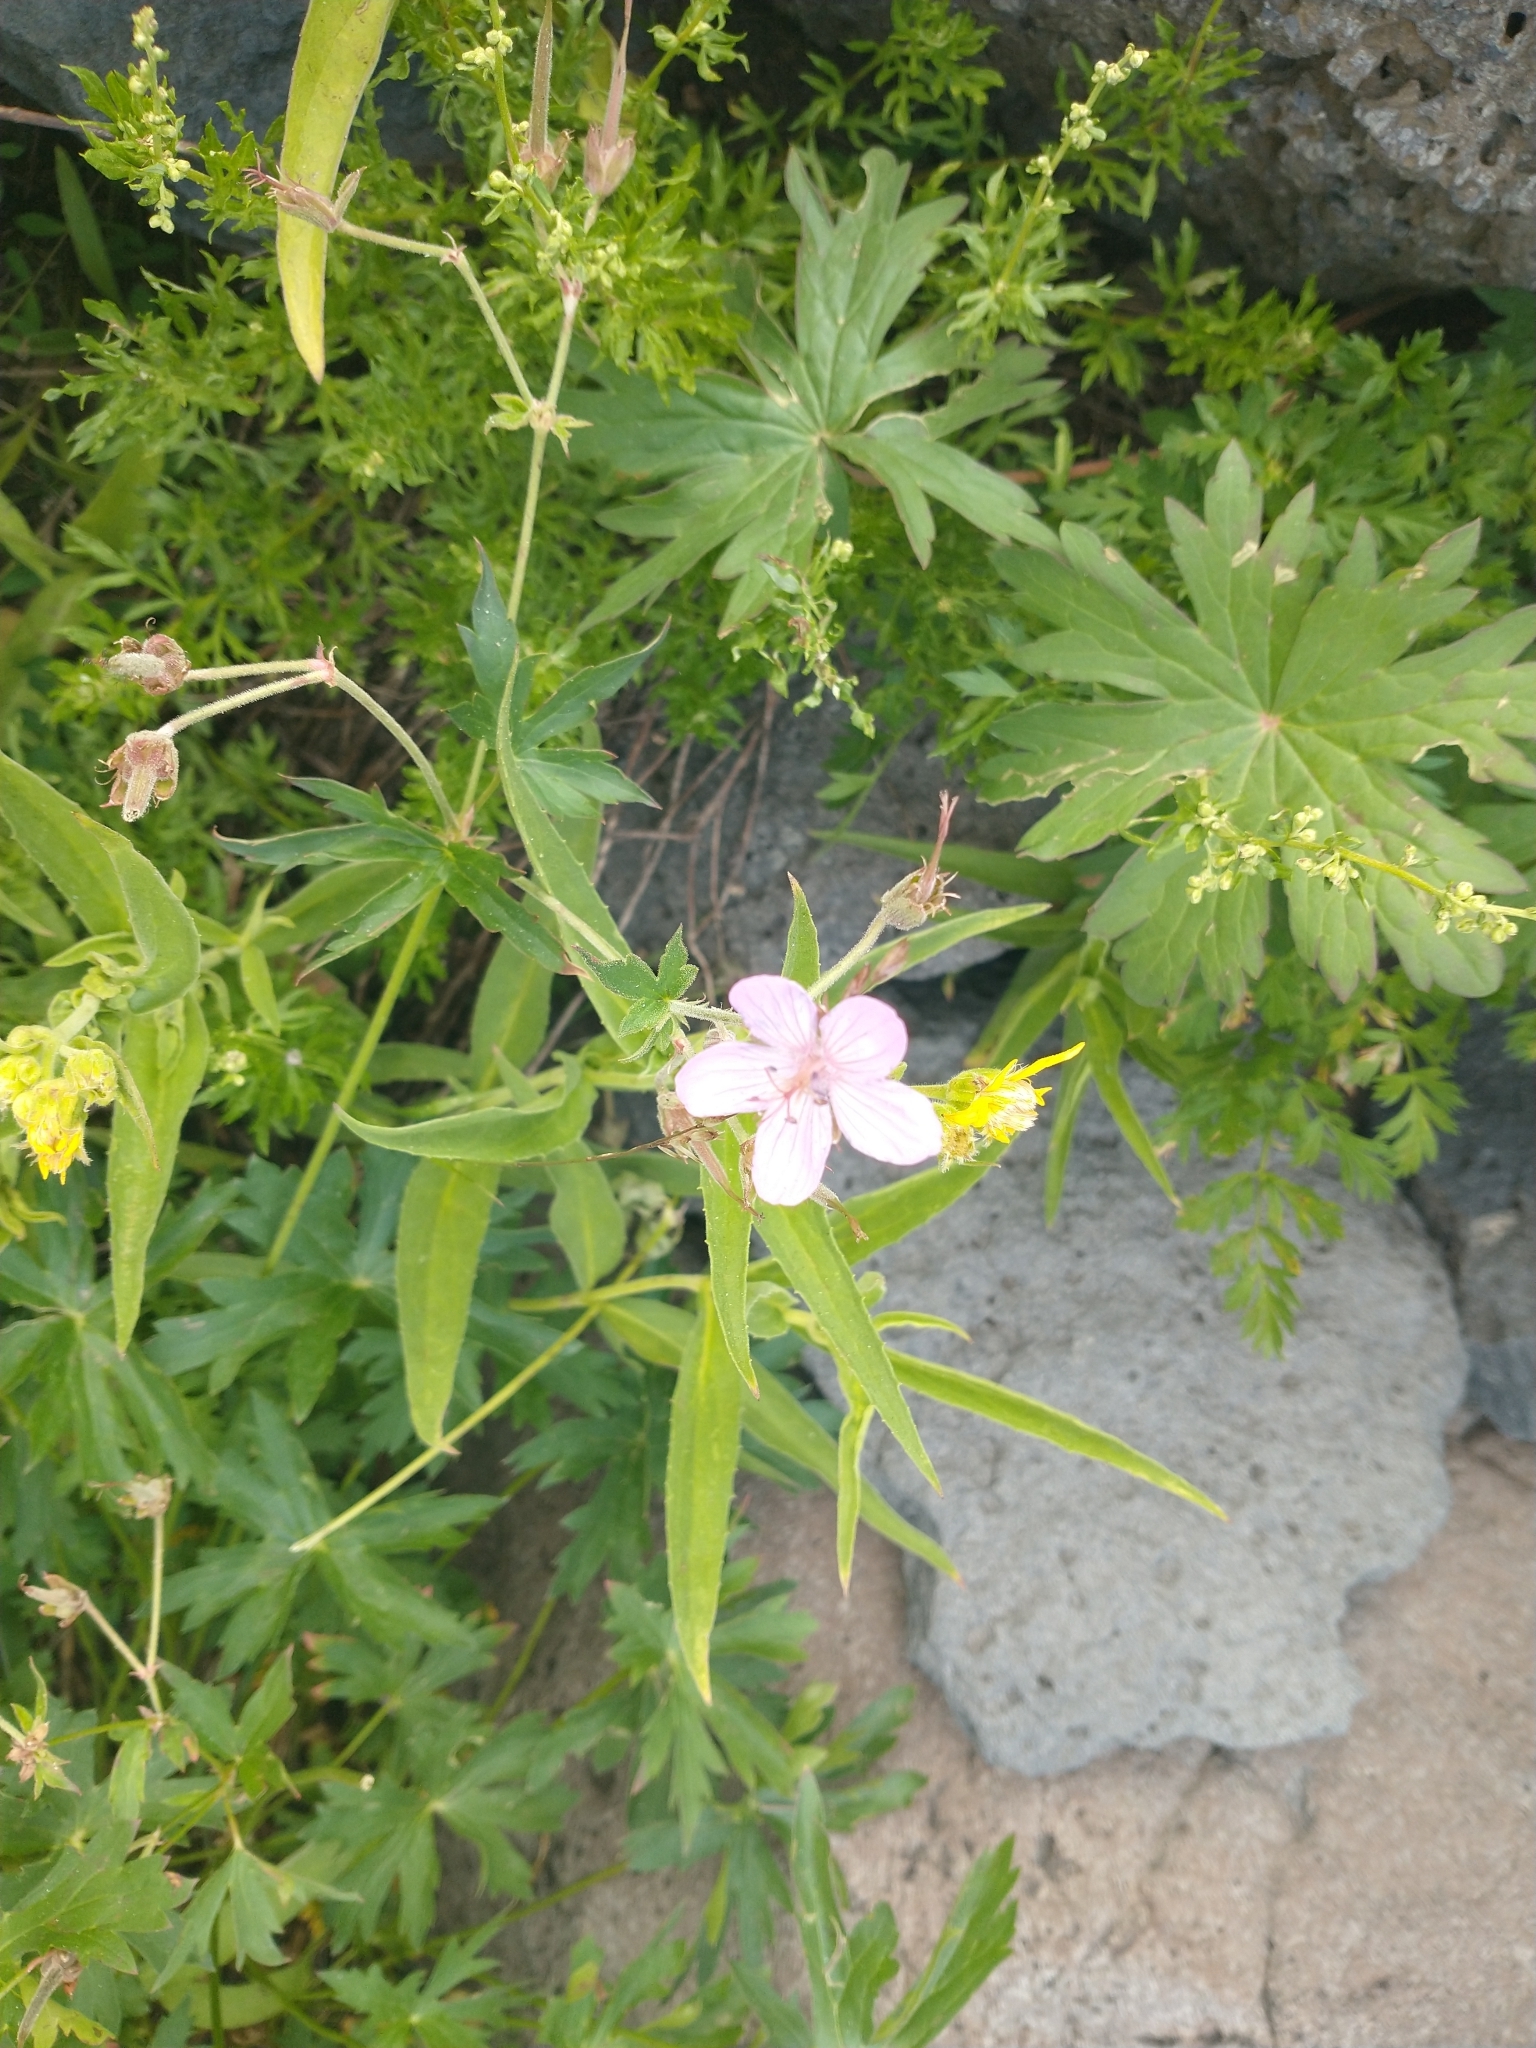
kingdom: Plantae
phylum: Tracheophyta
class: Magnoliopsida
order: Geraniales
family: Geraniaceae
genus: Geranium
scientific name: Geranium viscosissimum
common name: Purple geranium
